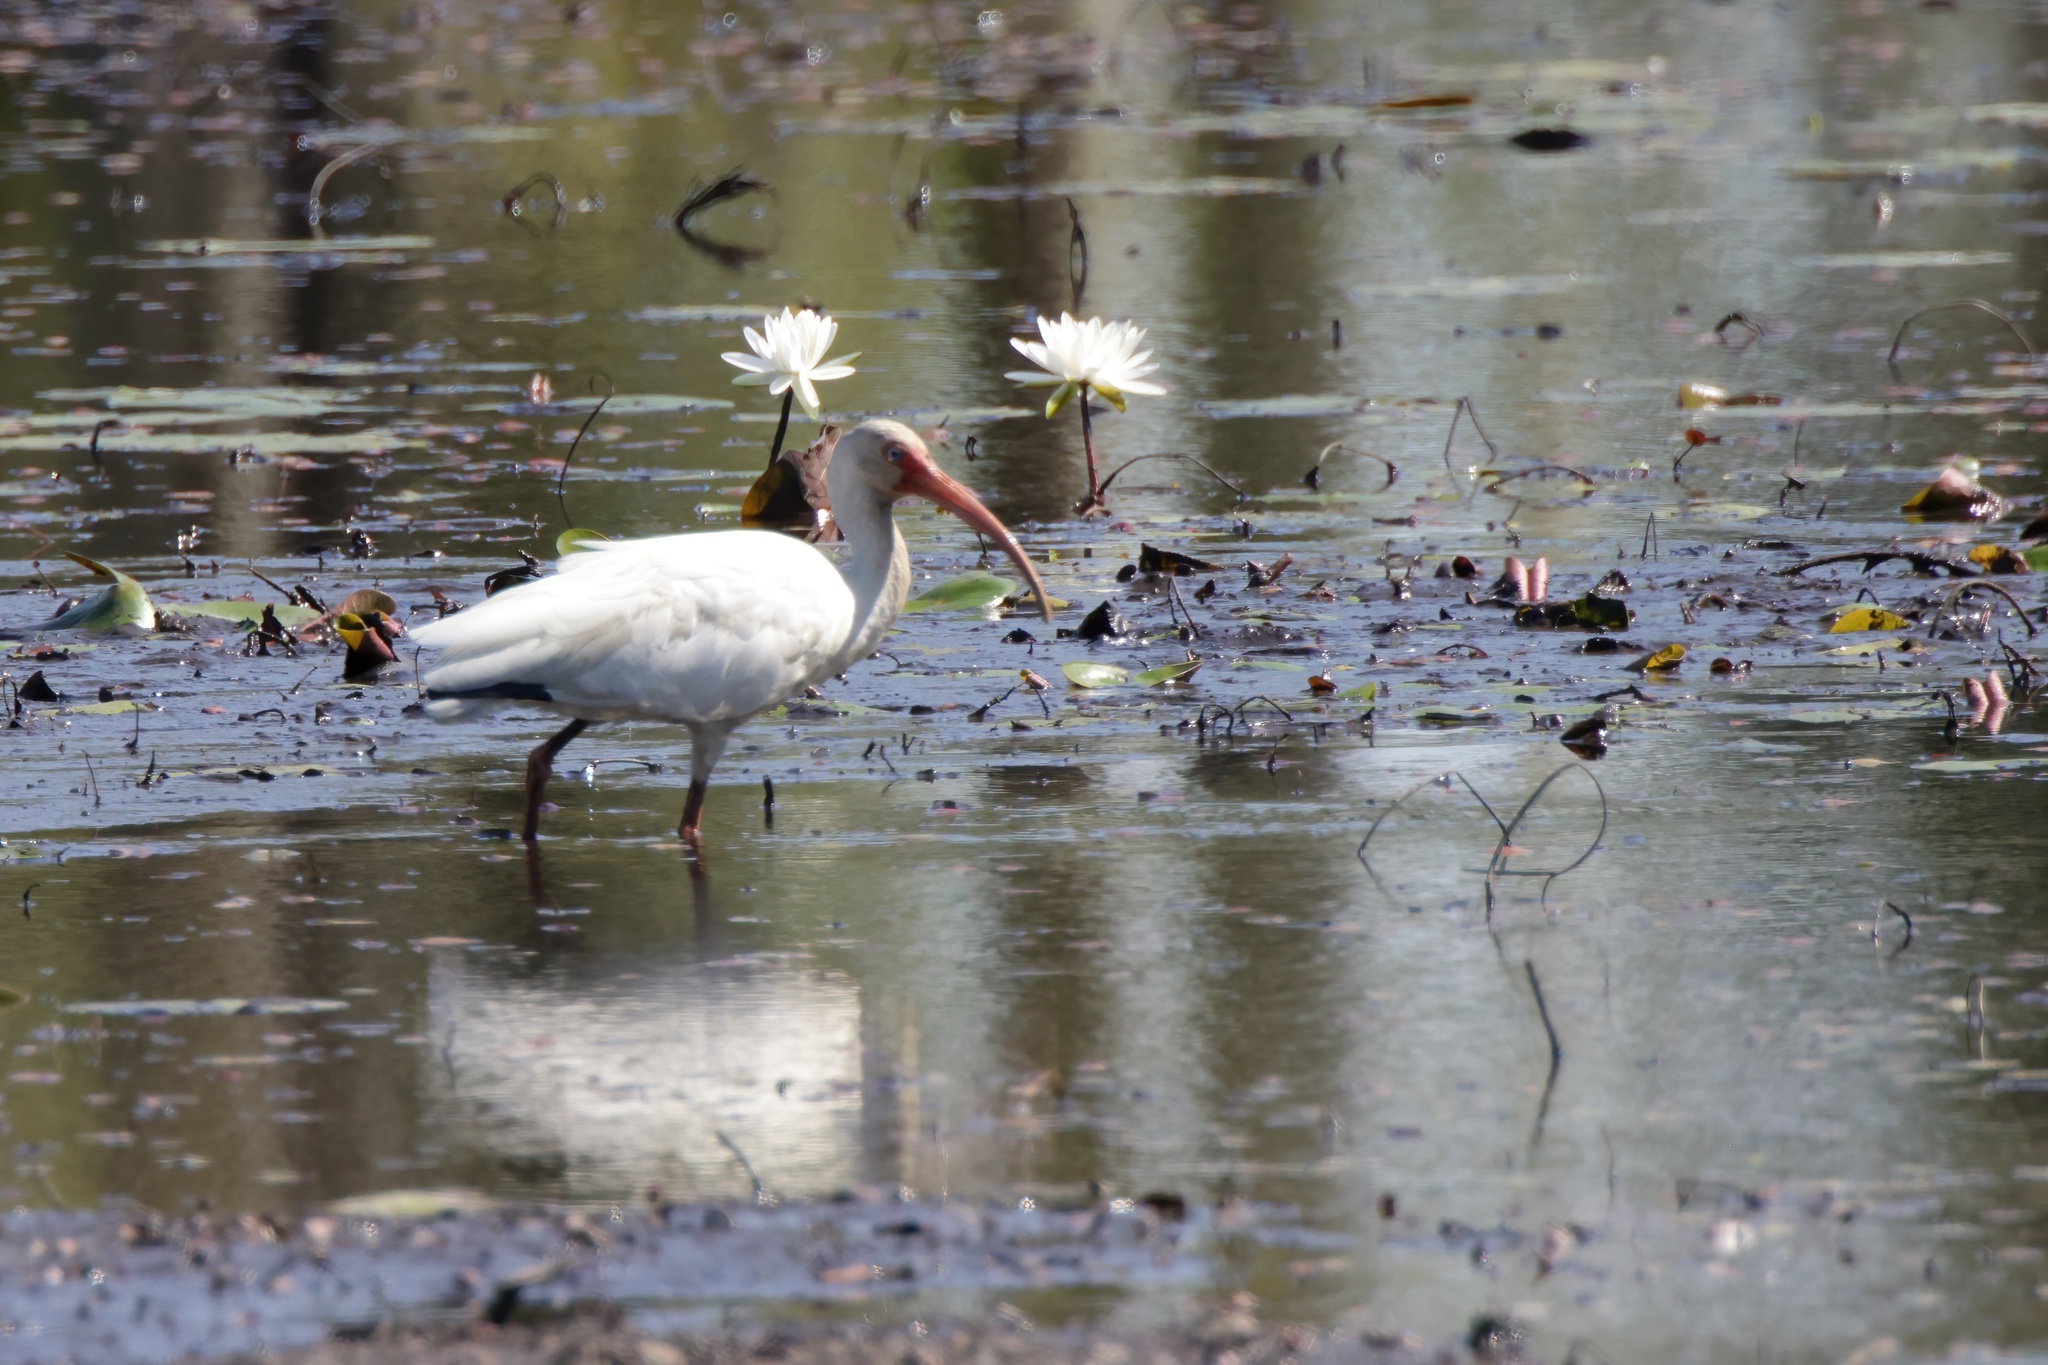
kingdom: Animalia
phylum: Chordata
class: Aves
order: Pelecaniformes
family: Threskiornithidae
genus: Eudocimus
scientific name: Eudocimus albus
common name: White ibis
